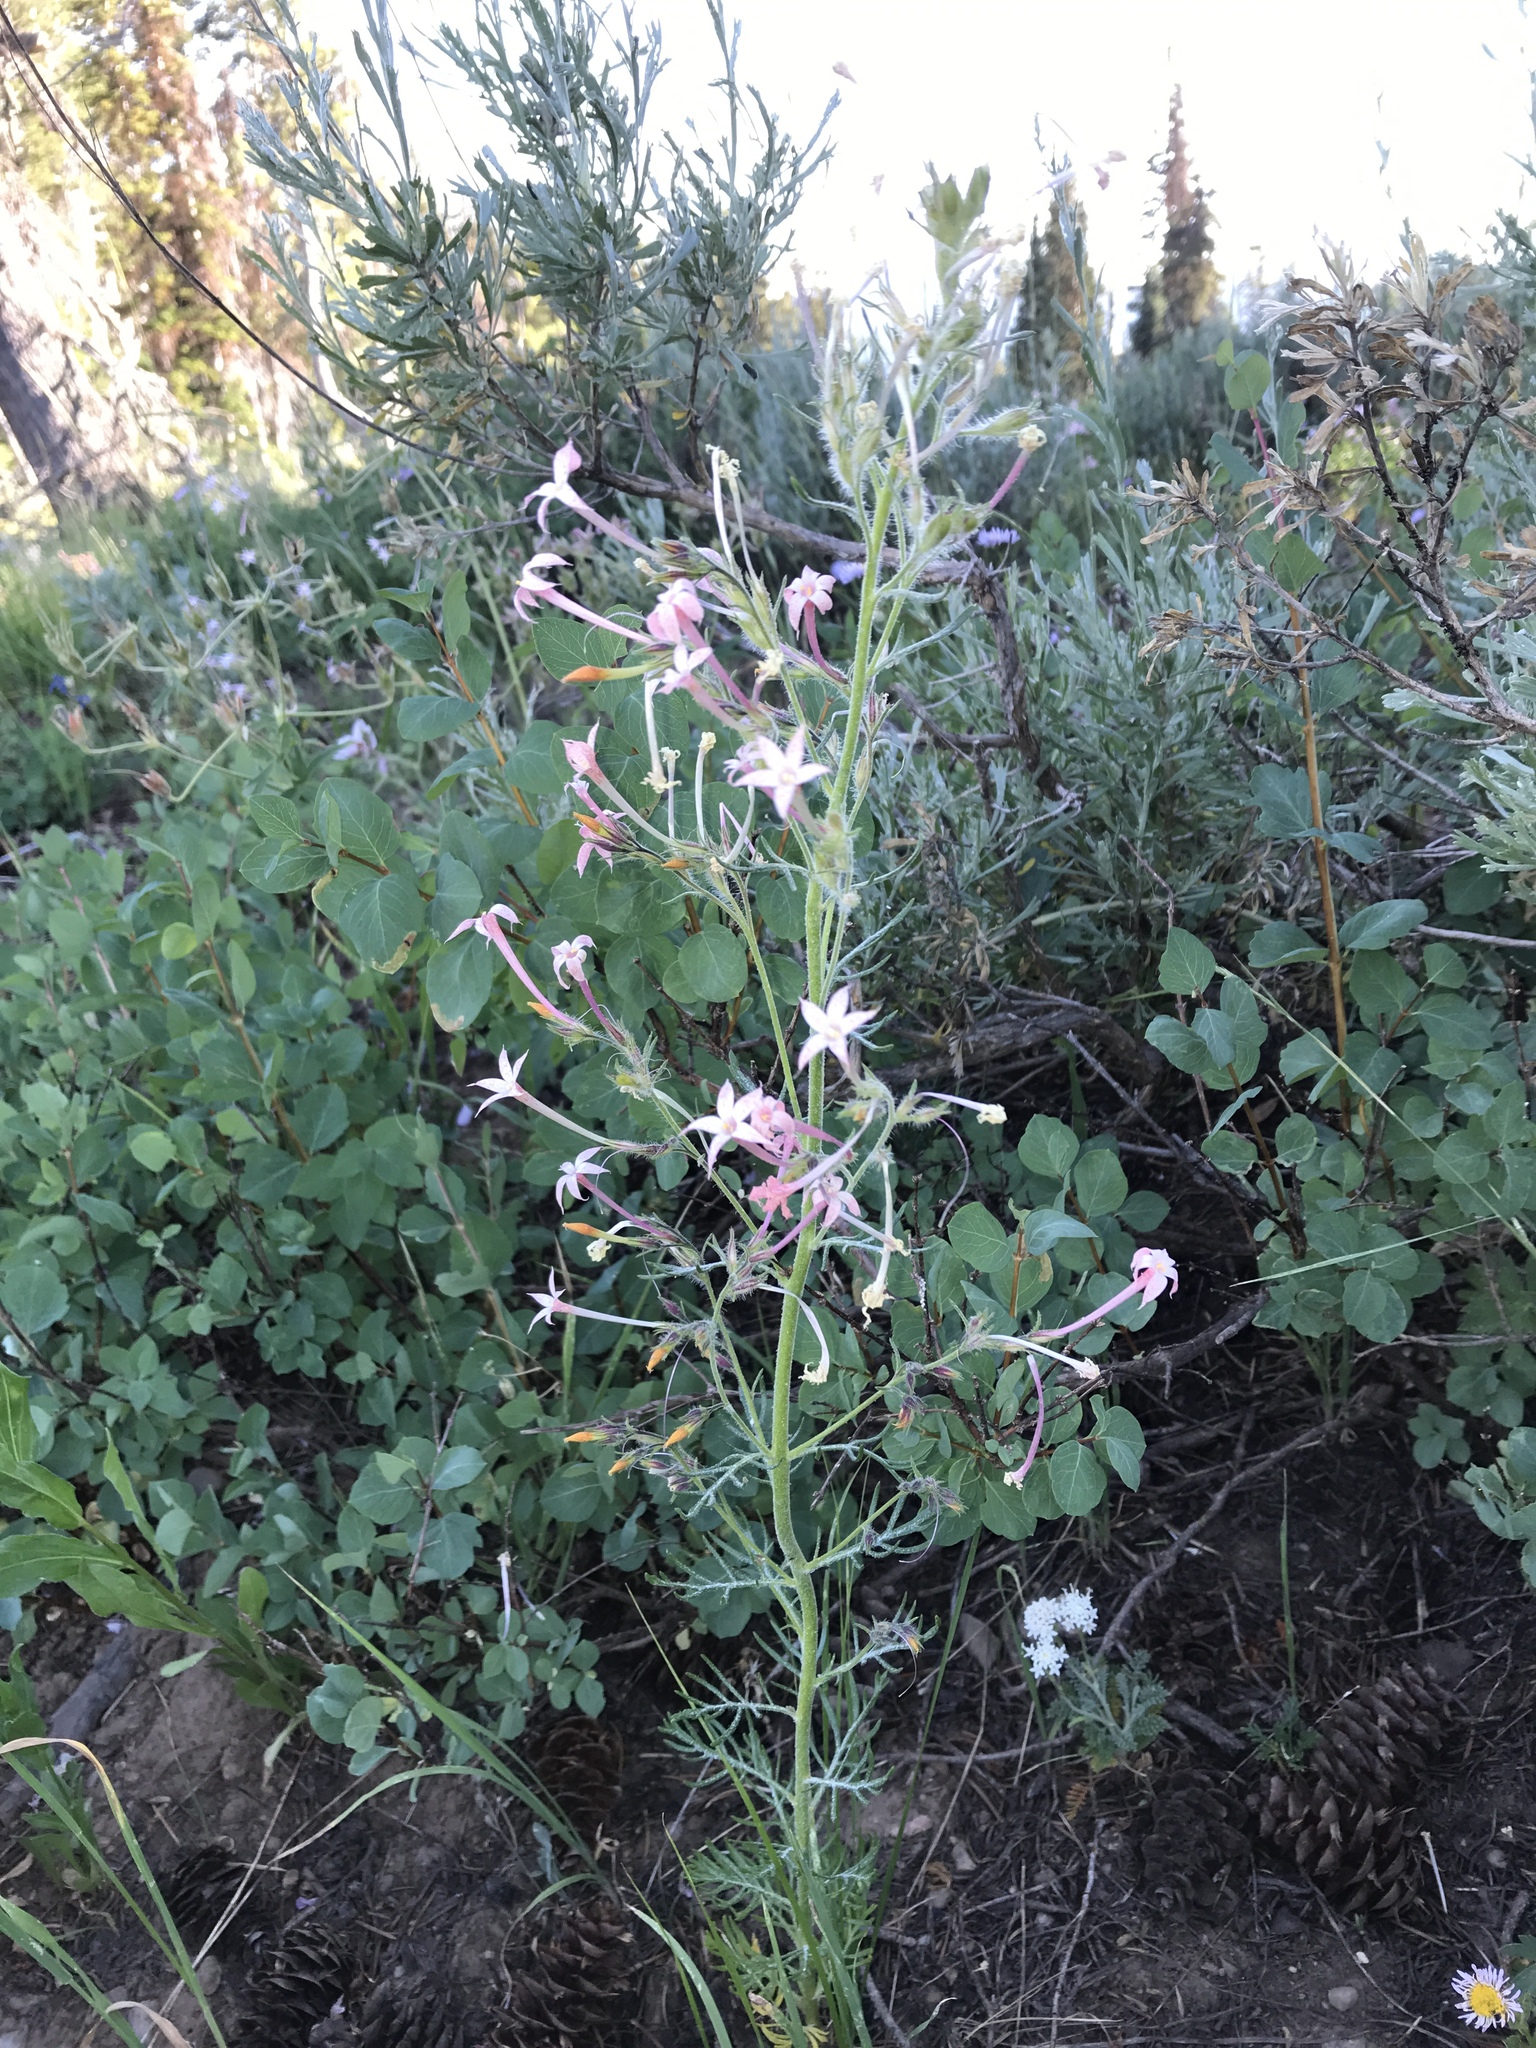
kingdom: Plantae
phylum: Tracheophyta
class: Magnoliopsida
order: Ericales
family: Polemoniaceae
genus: Ipomopsis
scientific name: Ipomopsis tenuituba
